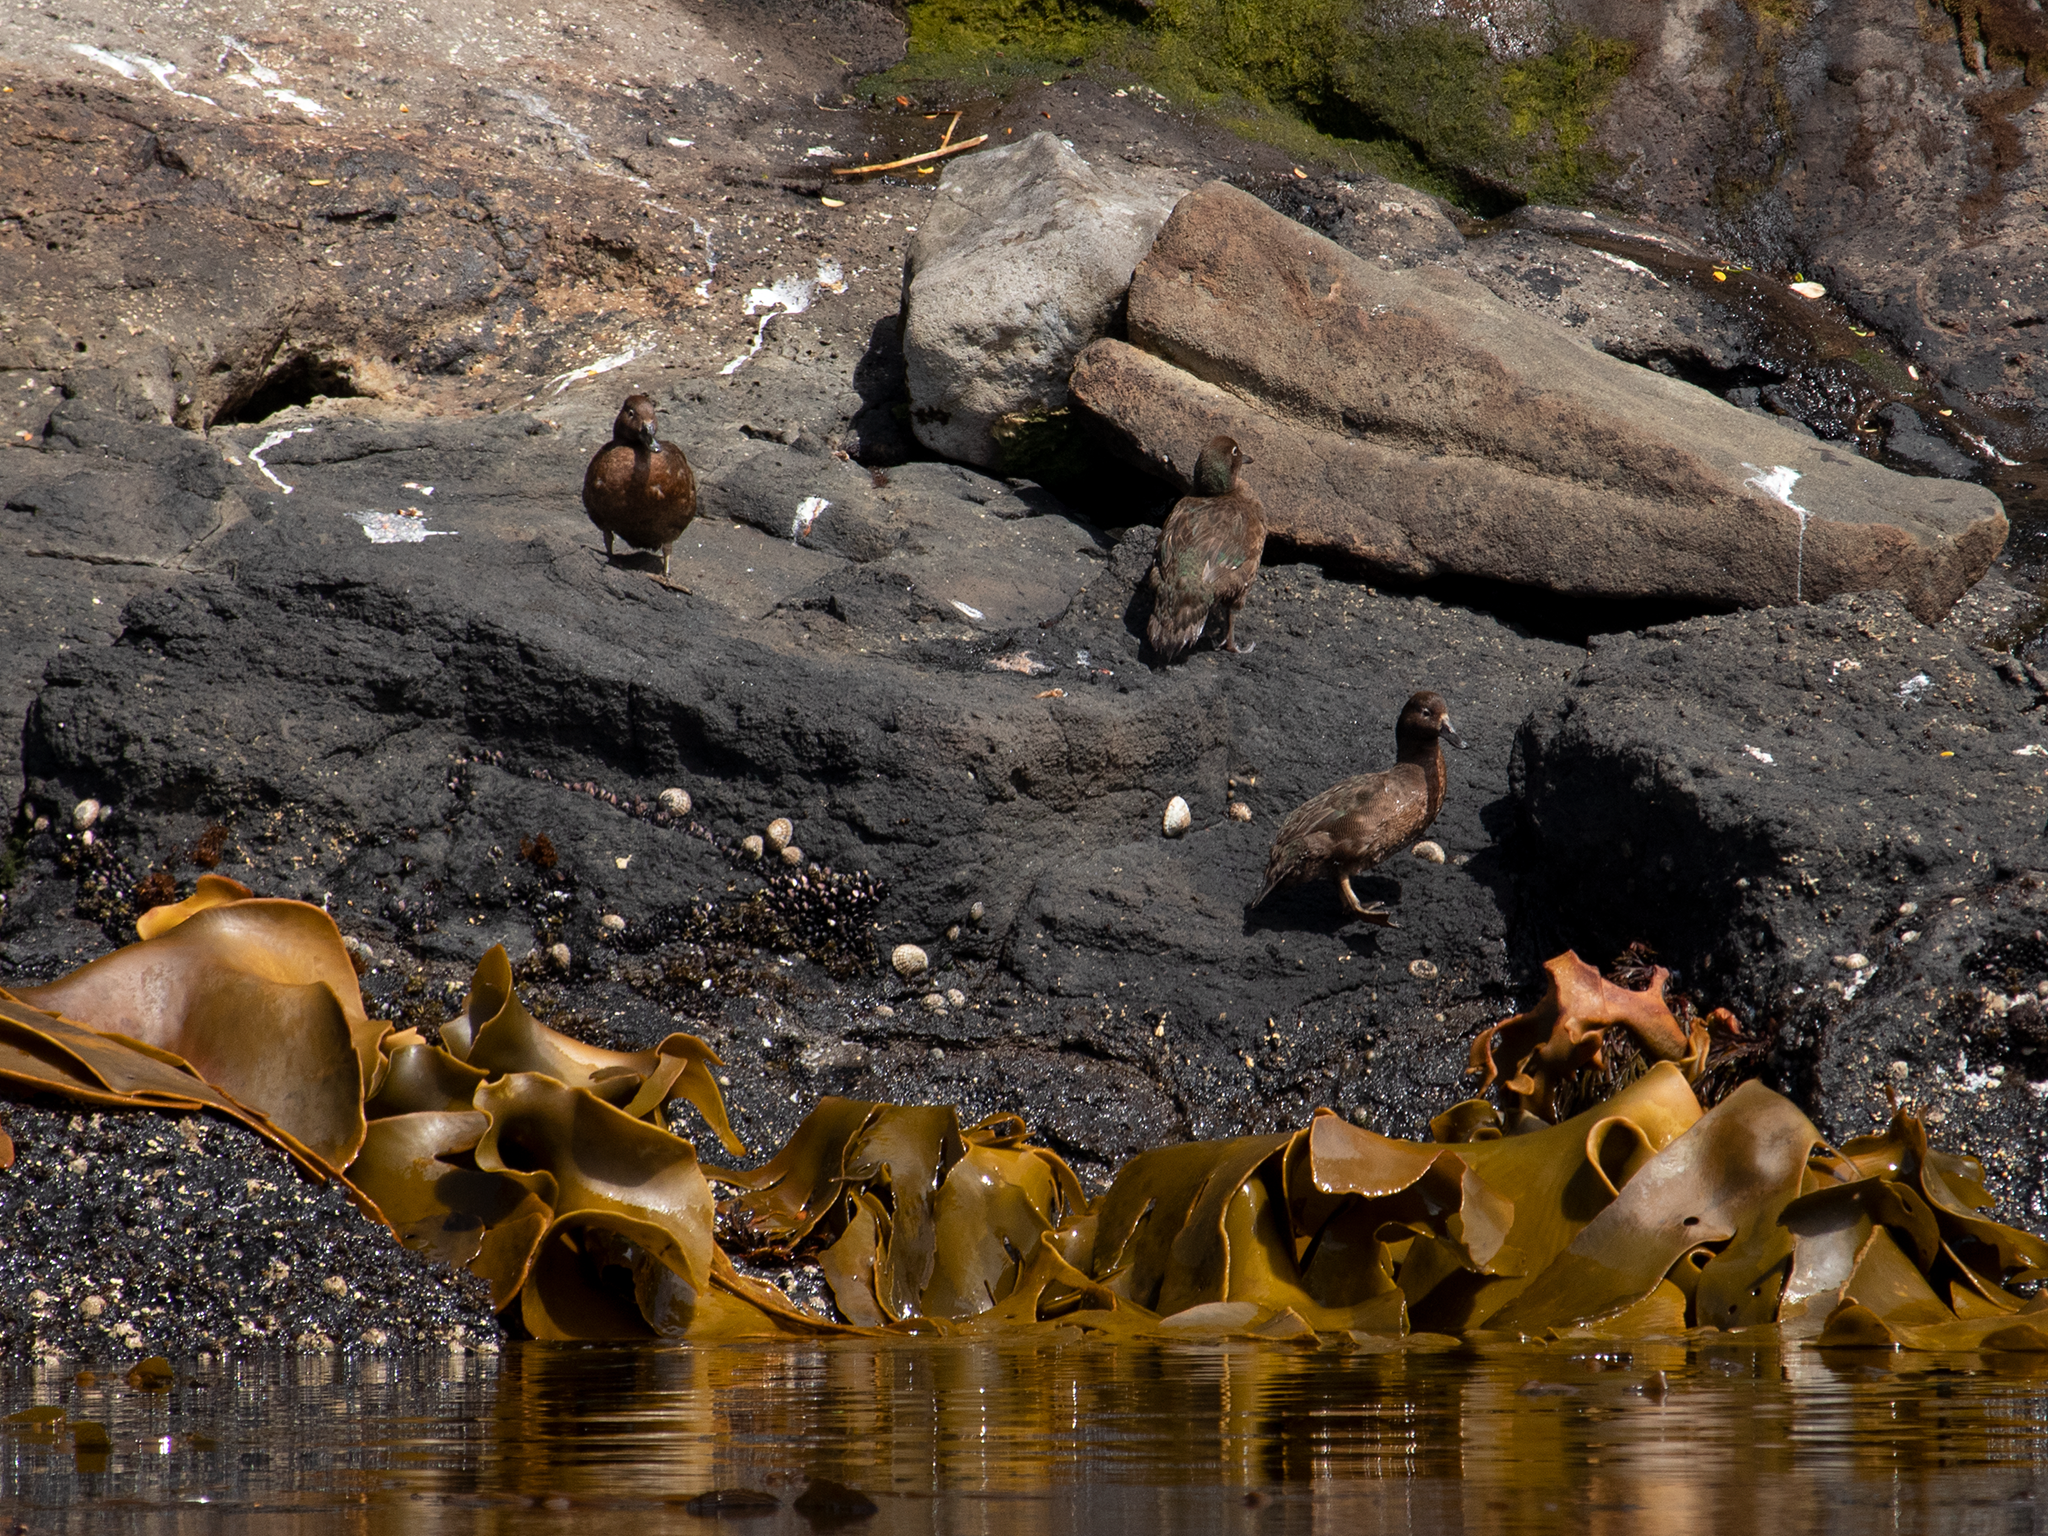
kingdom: Animalia
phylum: Chordata
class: Aves
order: Anseriformes
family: Anatidae
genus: Anas
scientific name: Anas aucklandica
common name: Auckland teal
